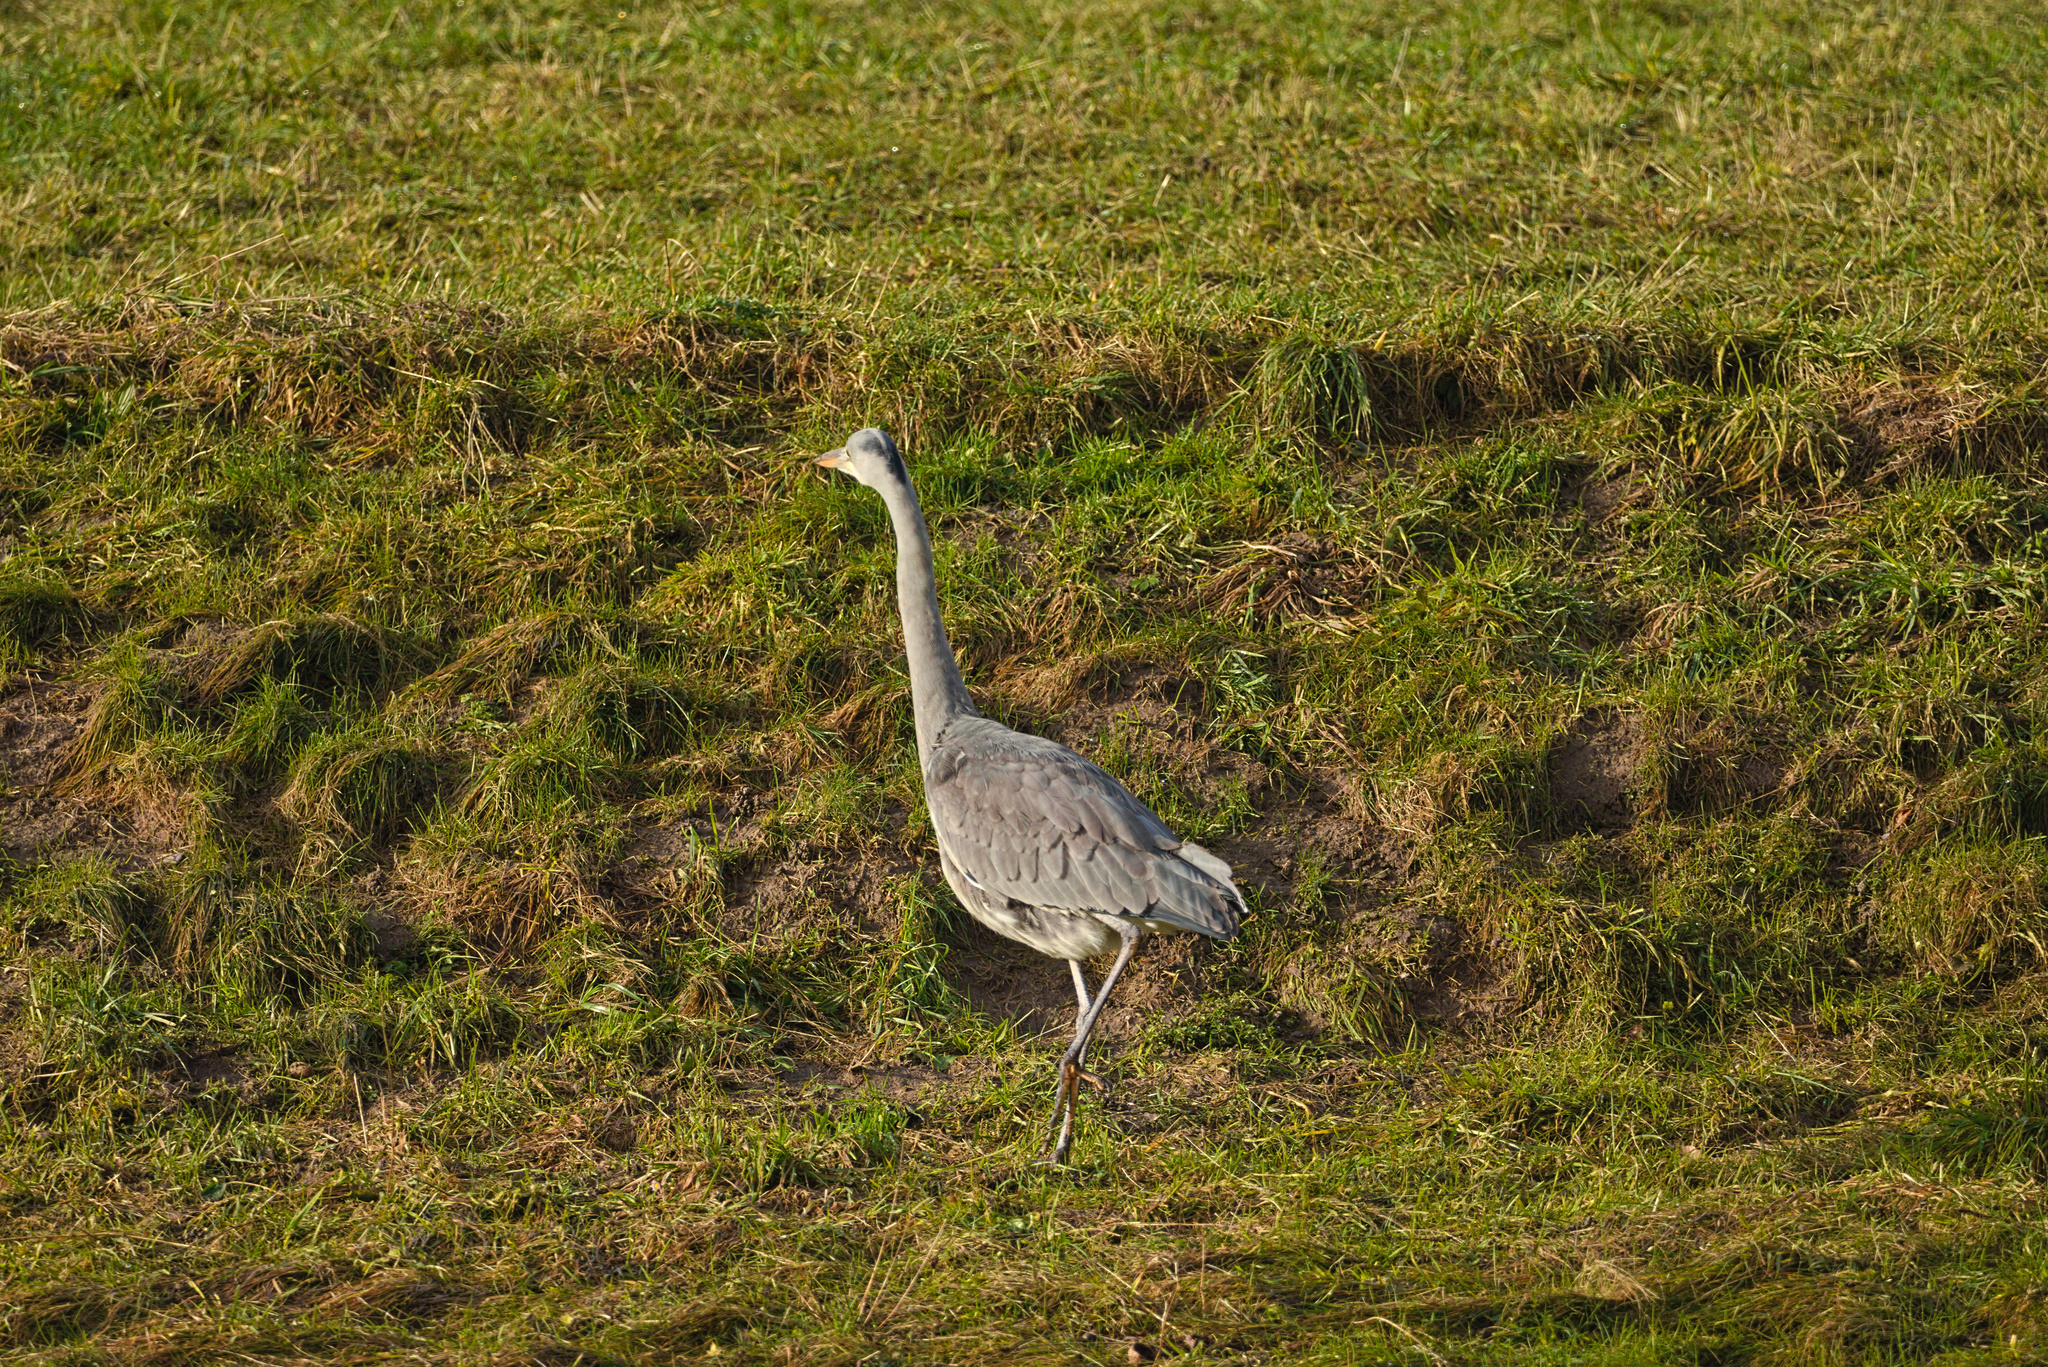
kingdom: Animalia
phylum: Chordata
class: Aves
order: Pelecaniformes
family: Ardeidae
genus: Ardea
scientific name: Ardea cinerea
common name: Grey heron
